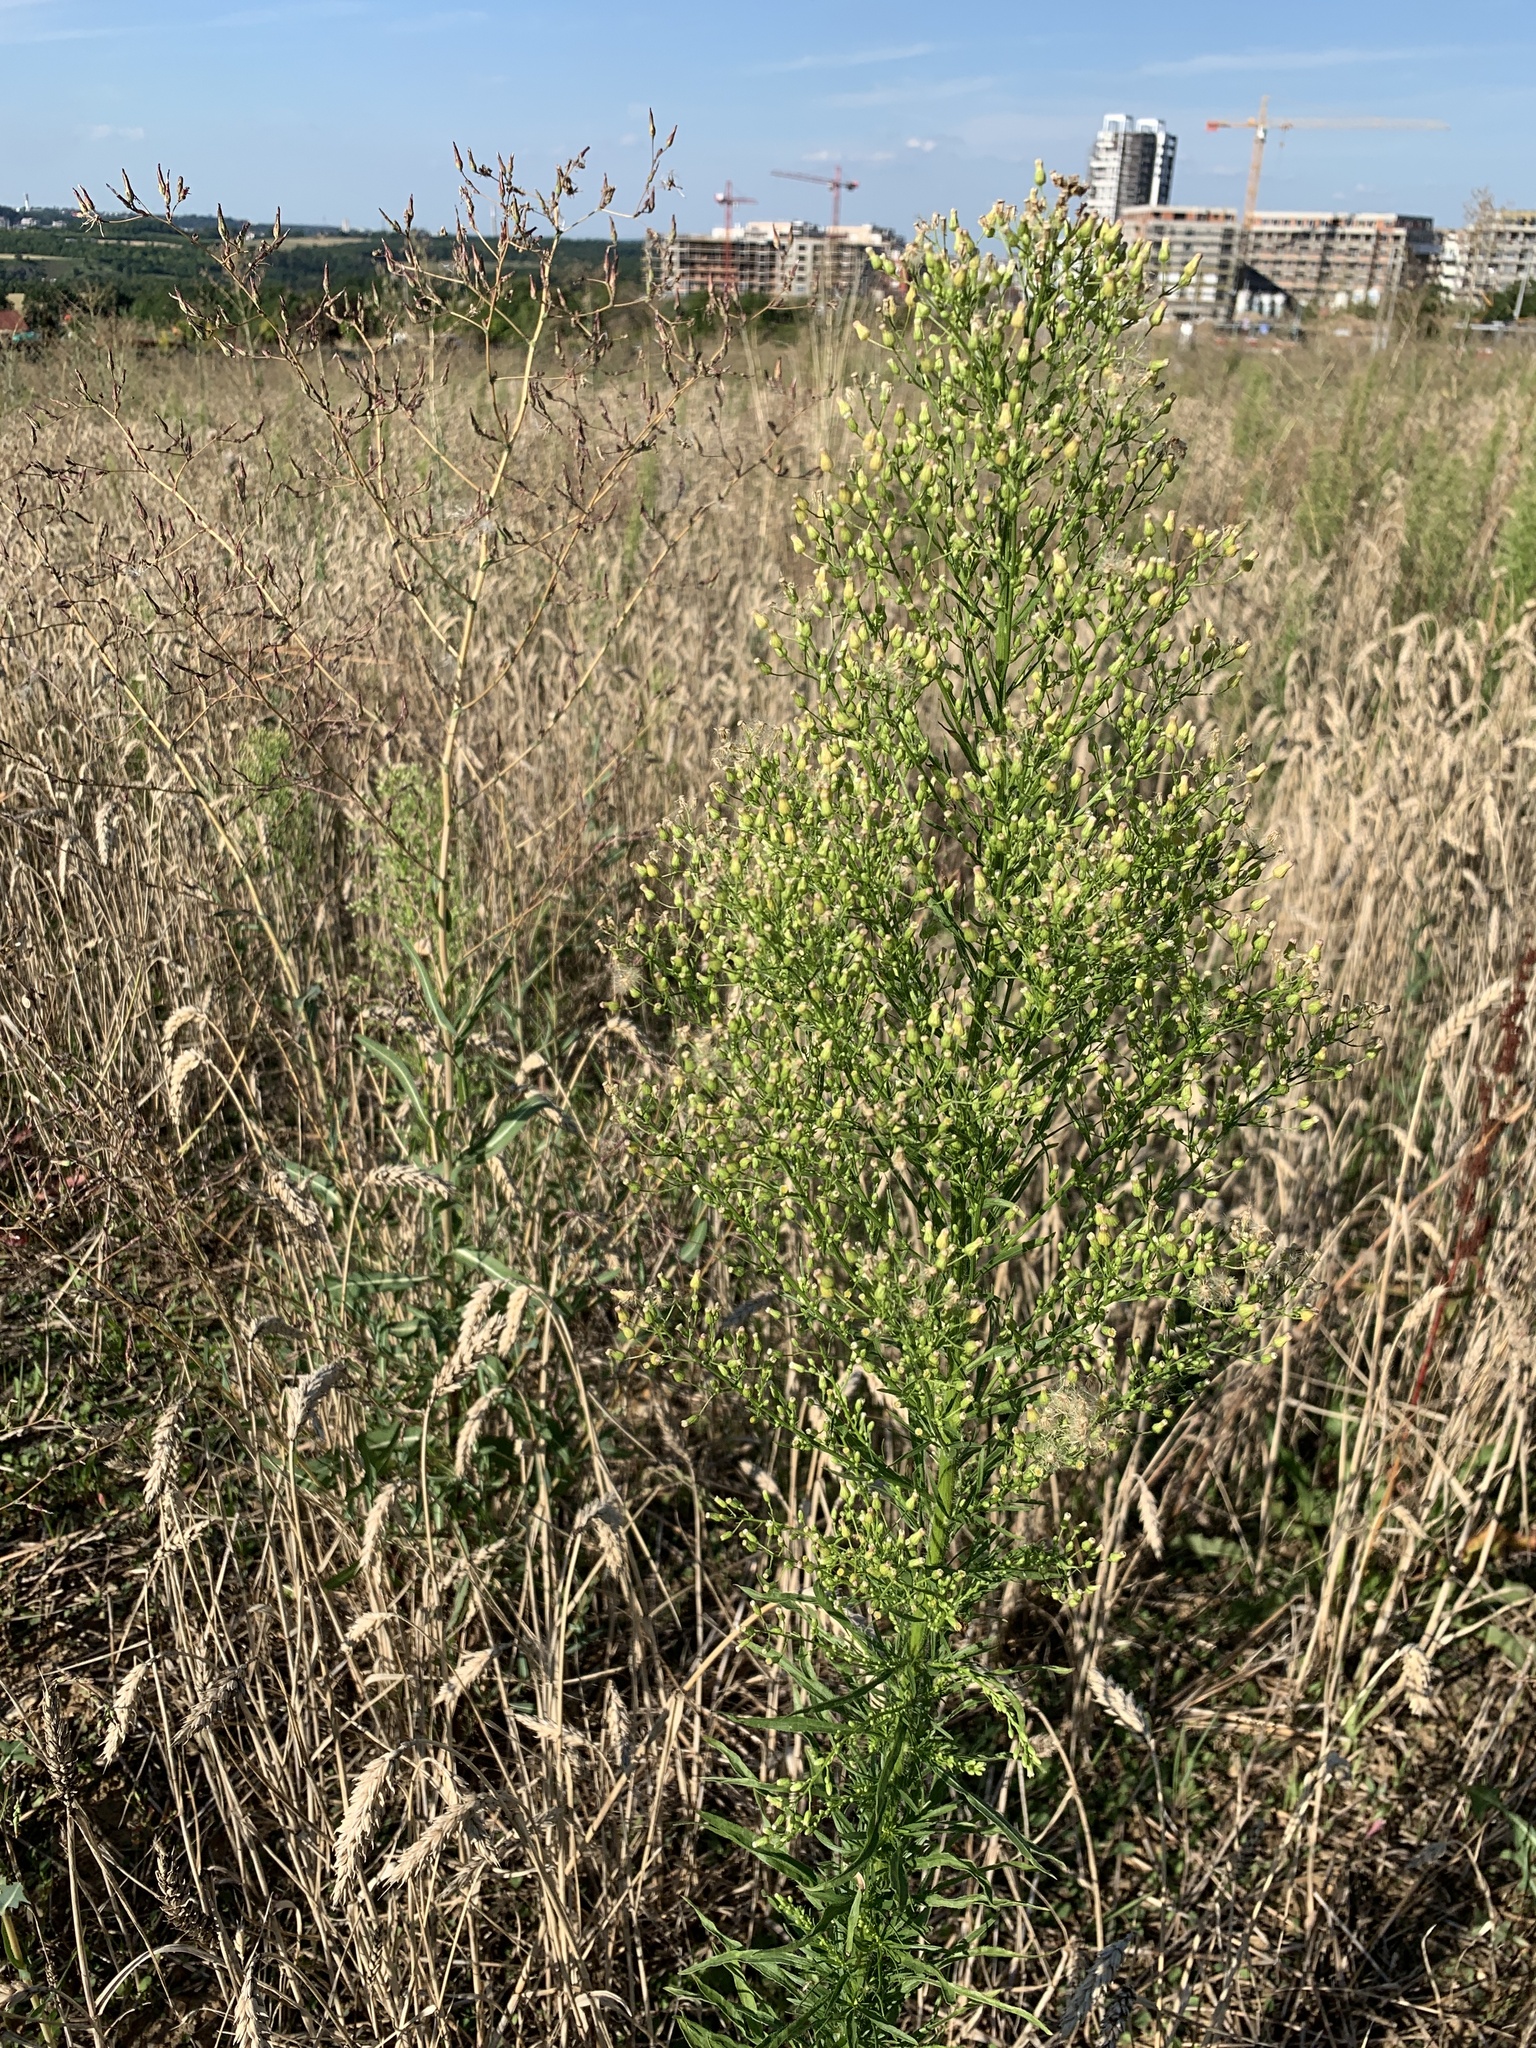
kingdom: Plantae
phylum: Tracheophyta
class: Magnoliopsida
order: Asterales
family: Asteraceae
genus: Erigeron
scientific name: Erigeron canadensis
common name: Canadian fleabane
